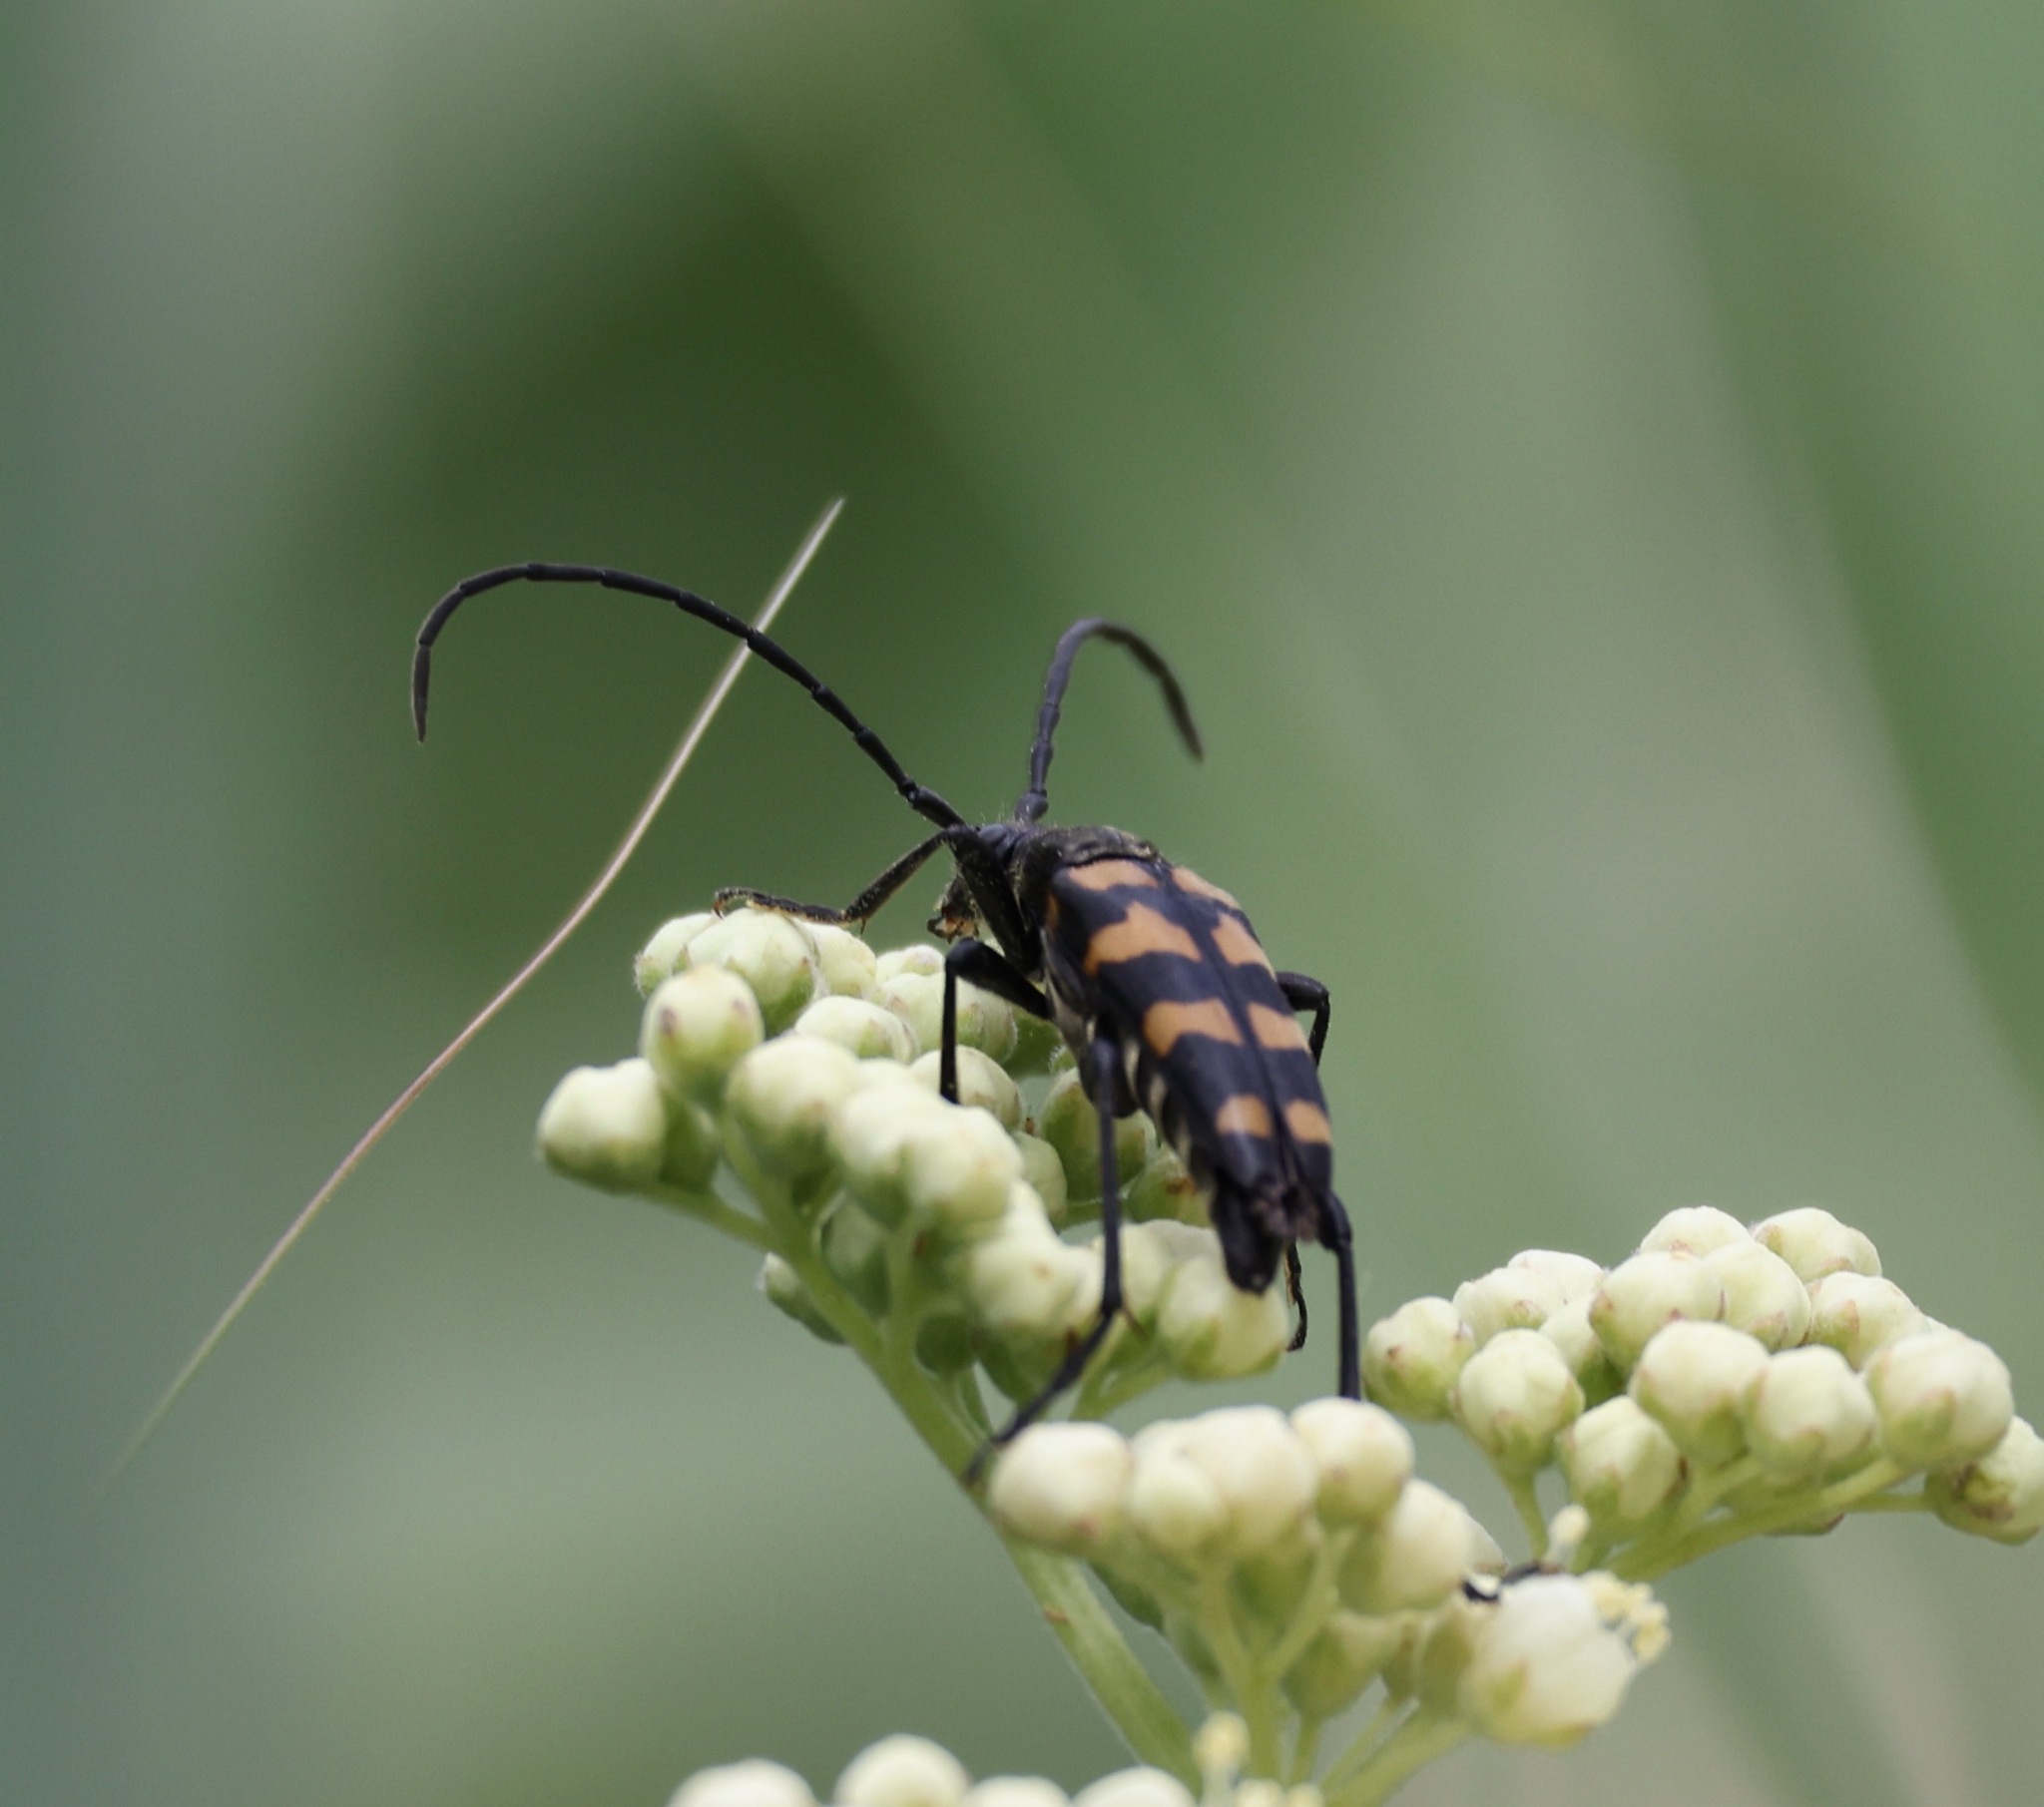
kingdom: Animalia
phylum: Arthropoda
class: Insecta
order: Coleoptera
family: Cerambycidae
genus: Leptura
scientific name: Leptura quadrifasciata
